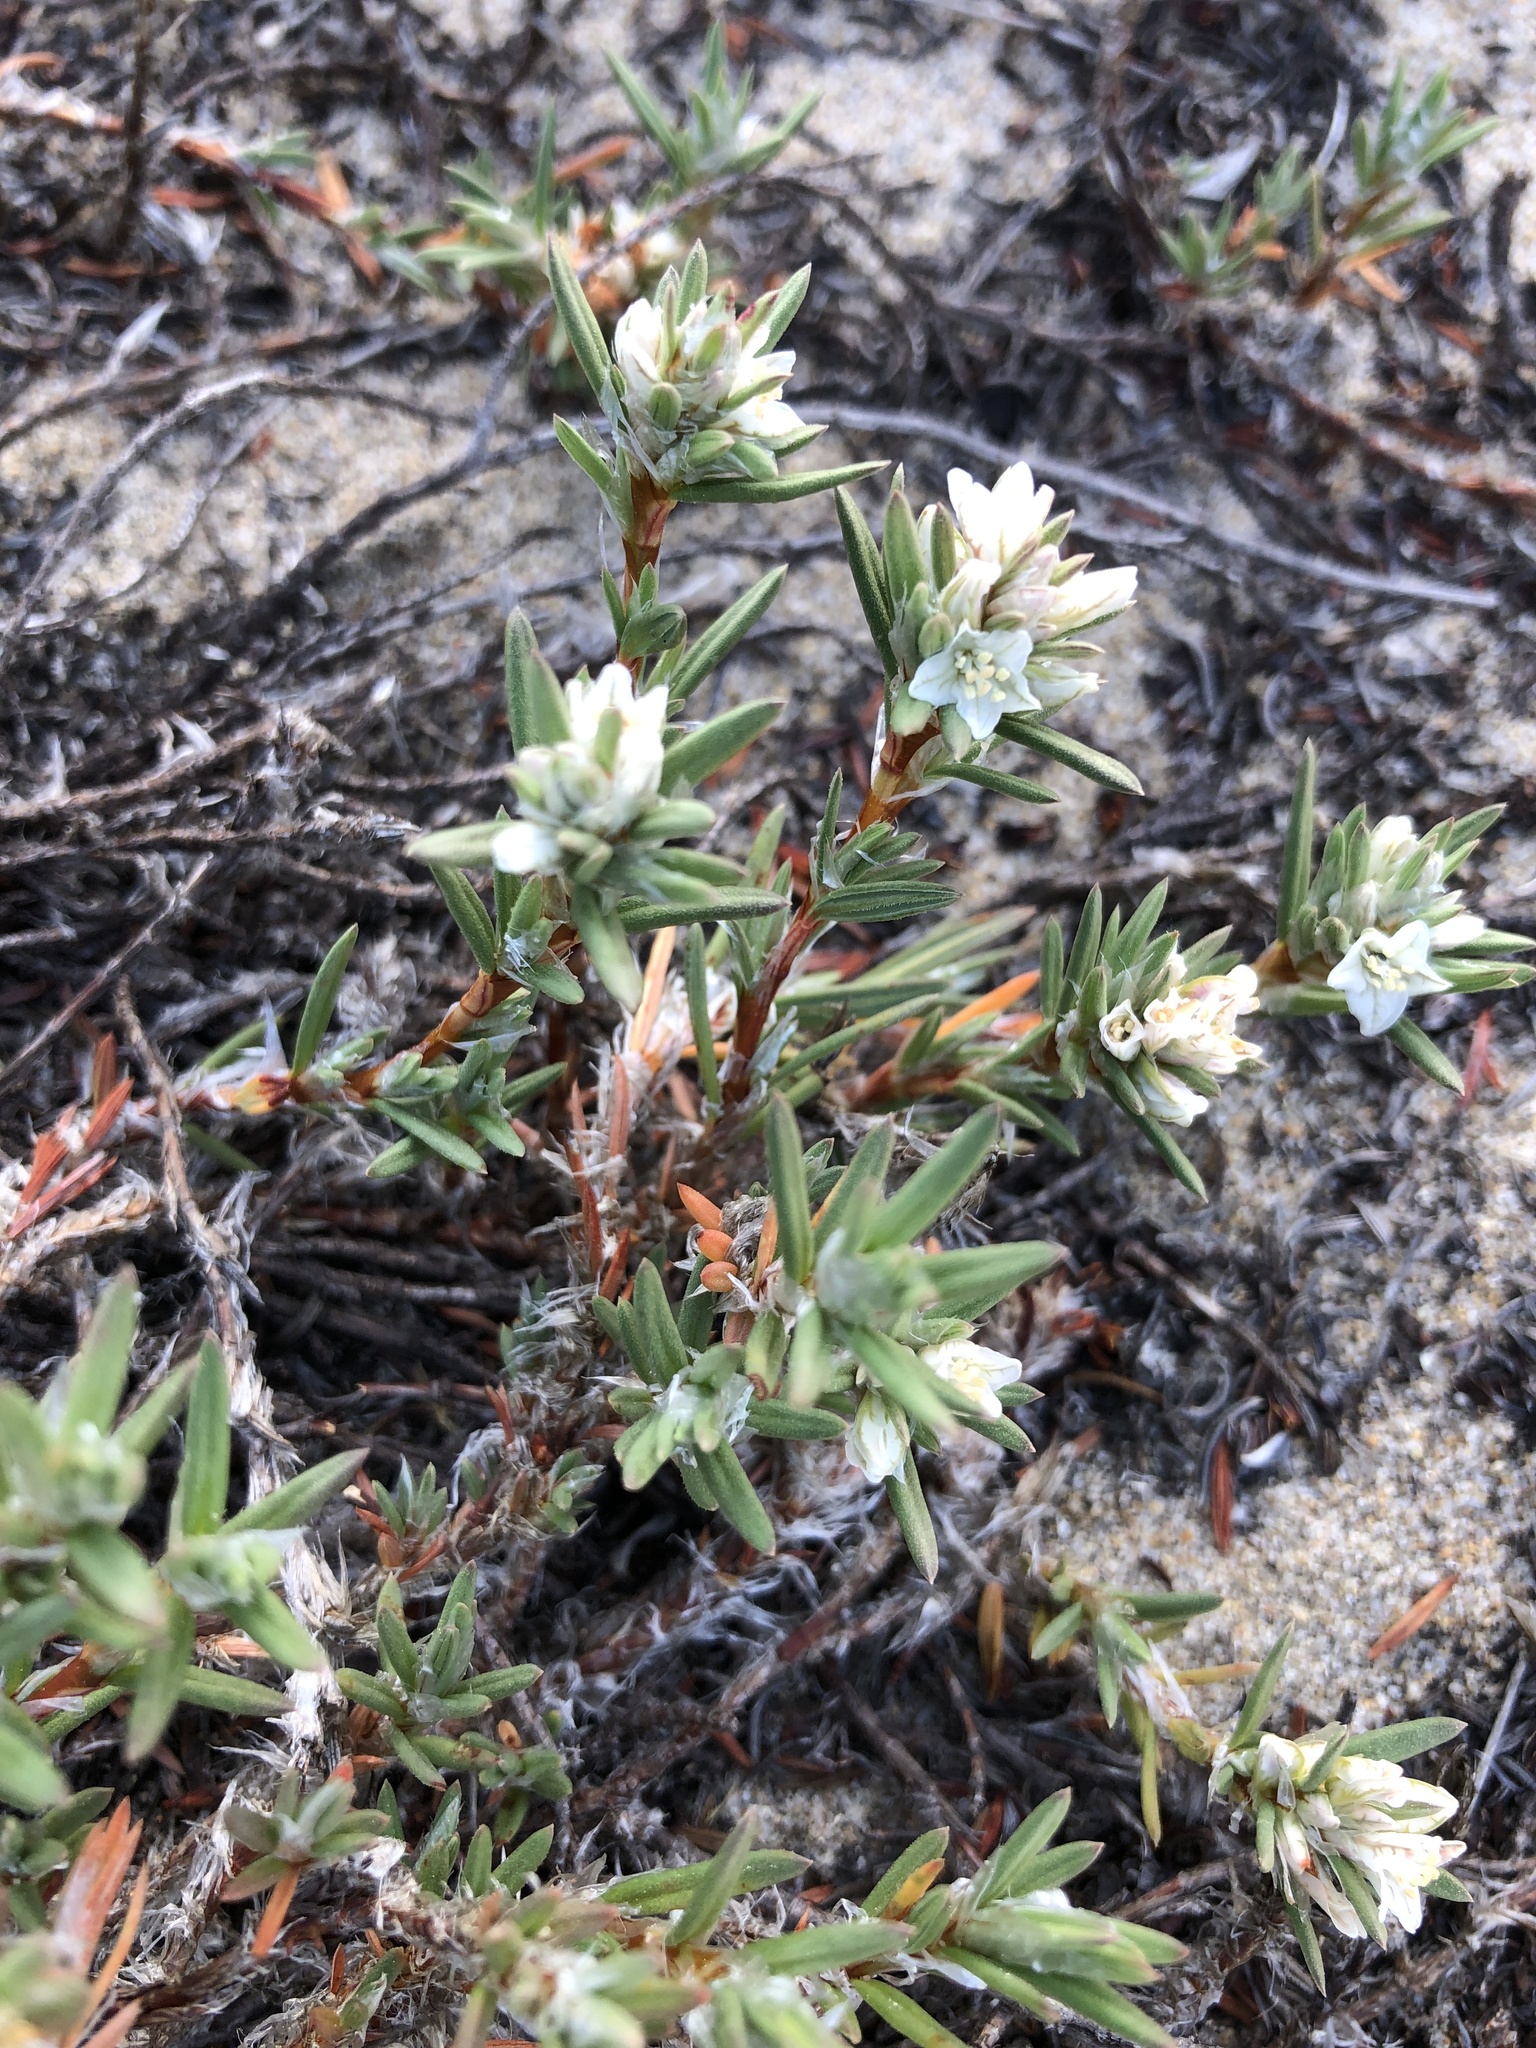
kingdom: Plantae
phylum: Tracheophyta
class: Magnoliopsida
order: Caryophyllales
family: Polygonaceae
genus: Polygonum
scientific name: Polygonum paronychia
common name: Dune knotweed
